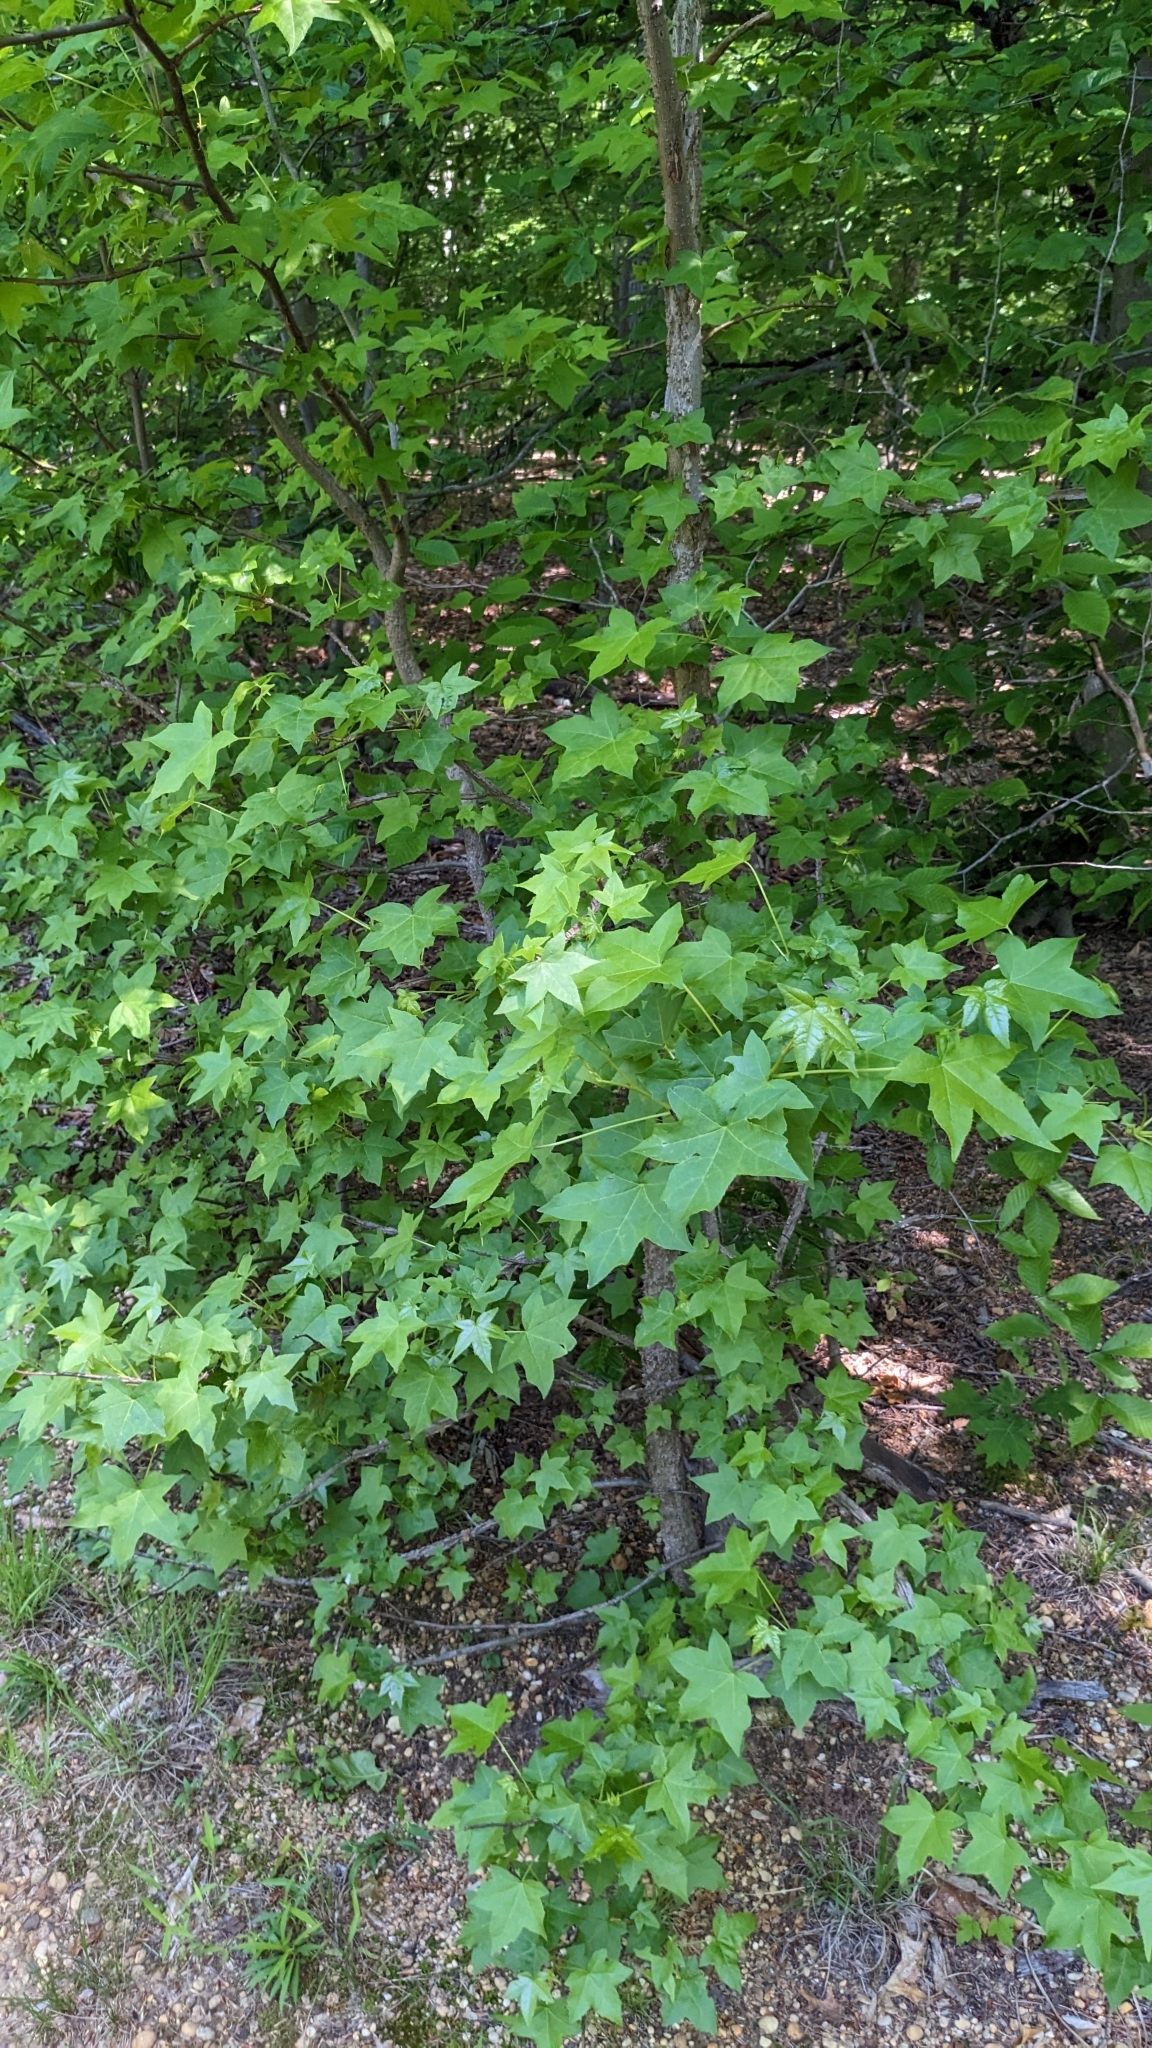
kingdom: Plantae
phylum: Tracheophyta
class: Magnoliopsida
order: Saxifragales
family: Altingiaceae
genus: Liquidambar
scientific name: Liquidambar styraciflua
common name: Sweet gum
